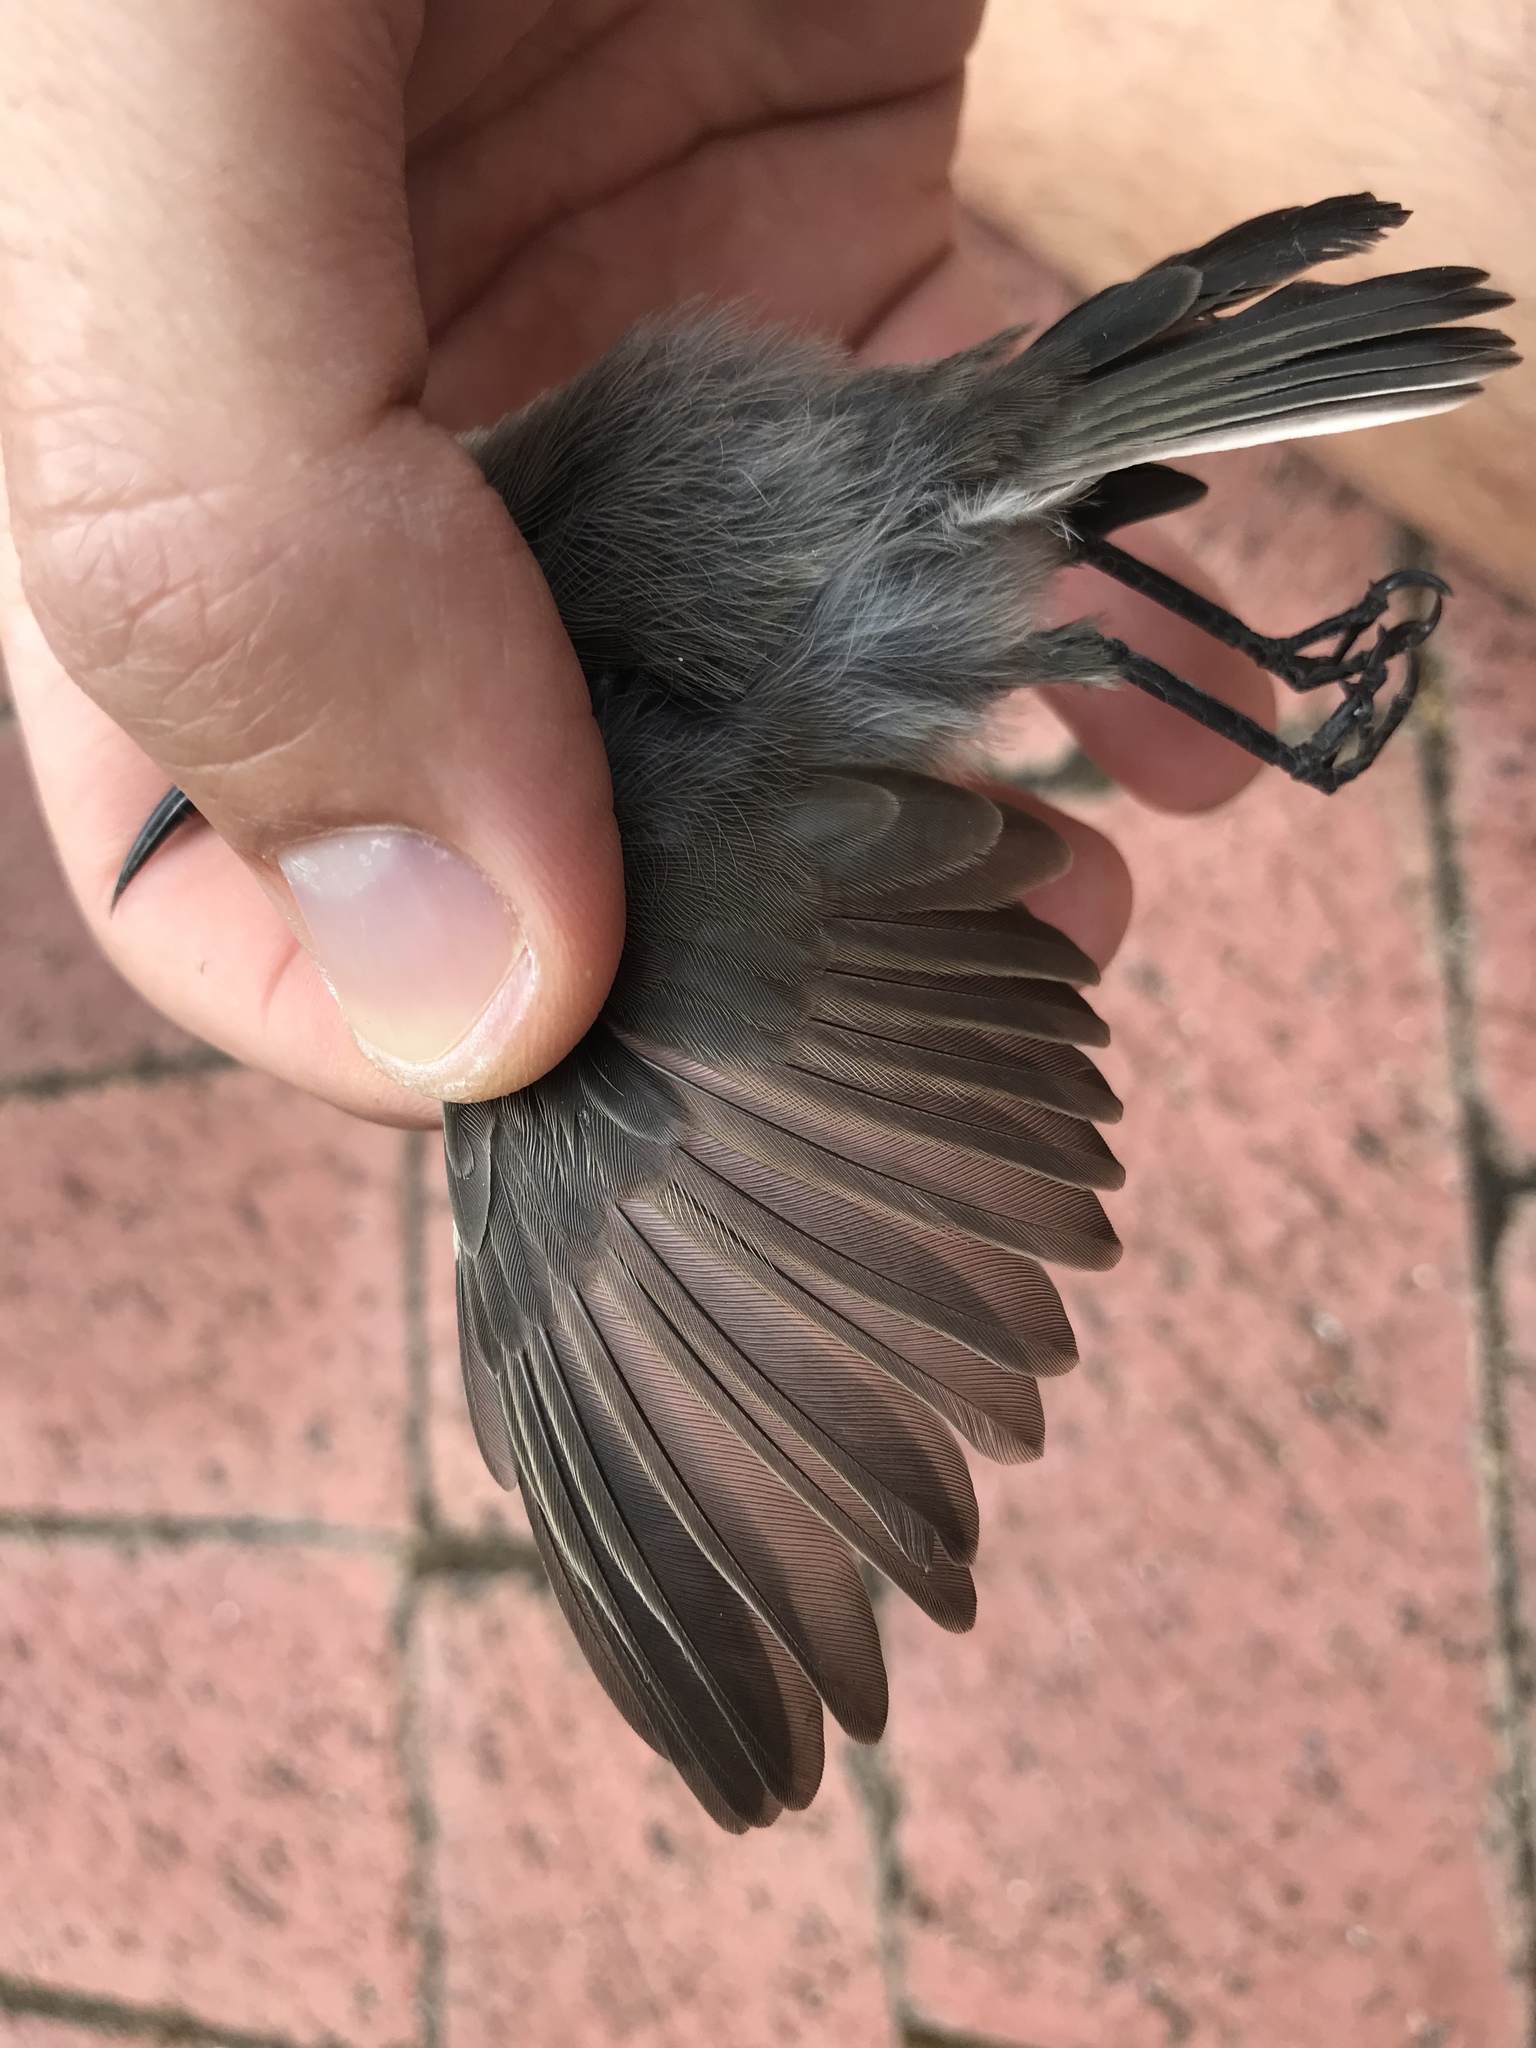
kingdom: Animalia
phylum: Chordata
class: Aves
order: Passeriformes
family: Nectariniidae
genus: Cinnyris
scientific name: Cinnyris chalybeus
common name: Southern double-collared sunbird
